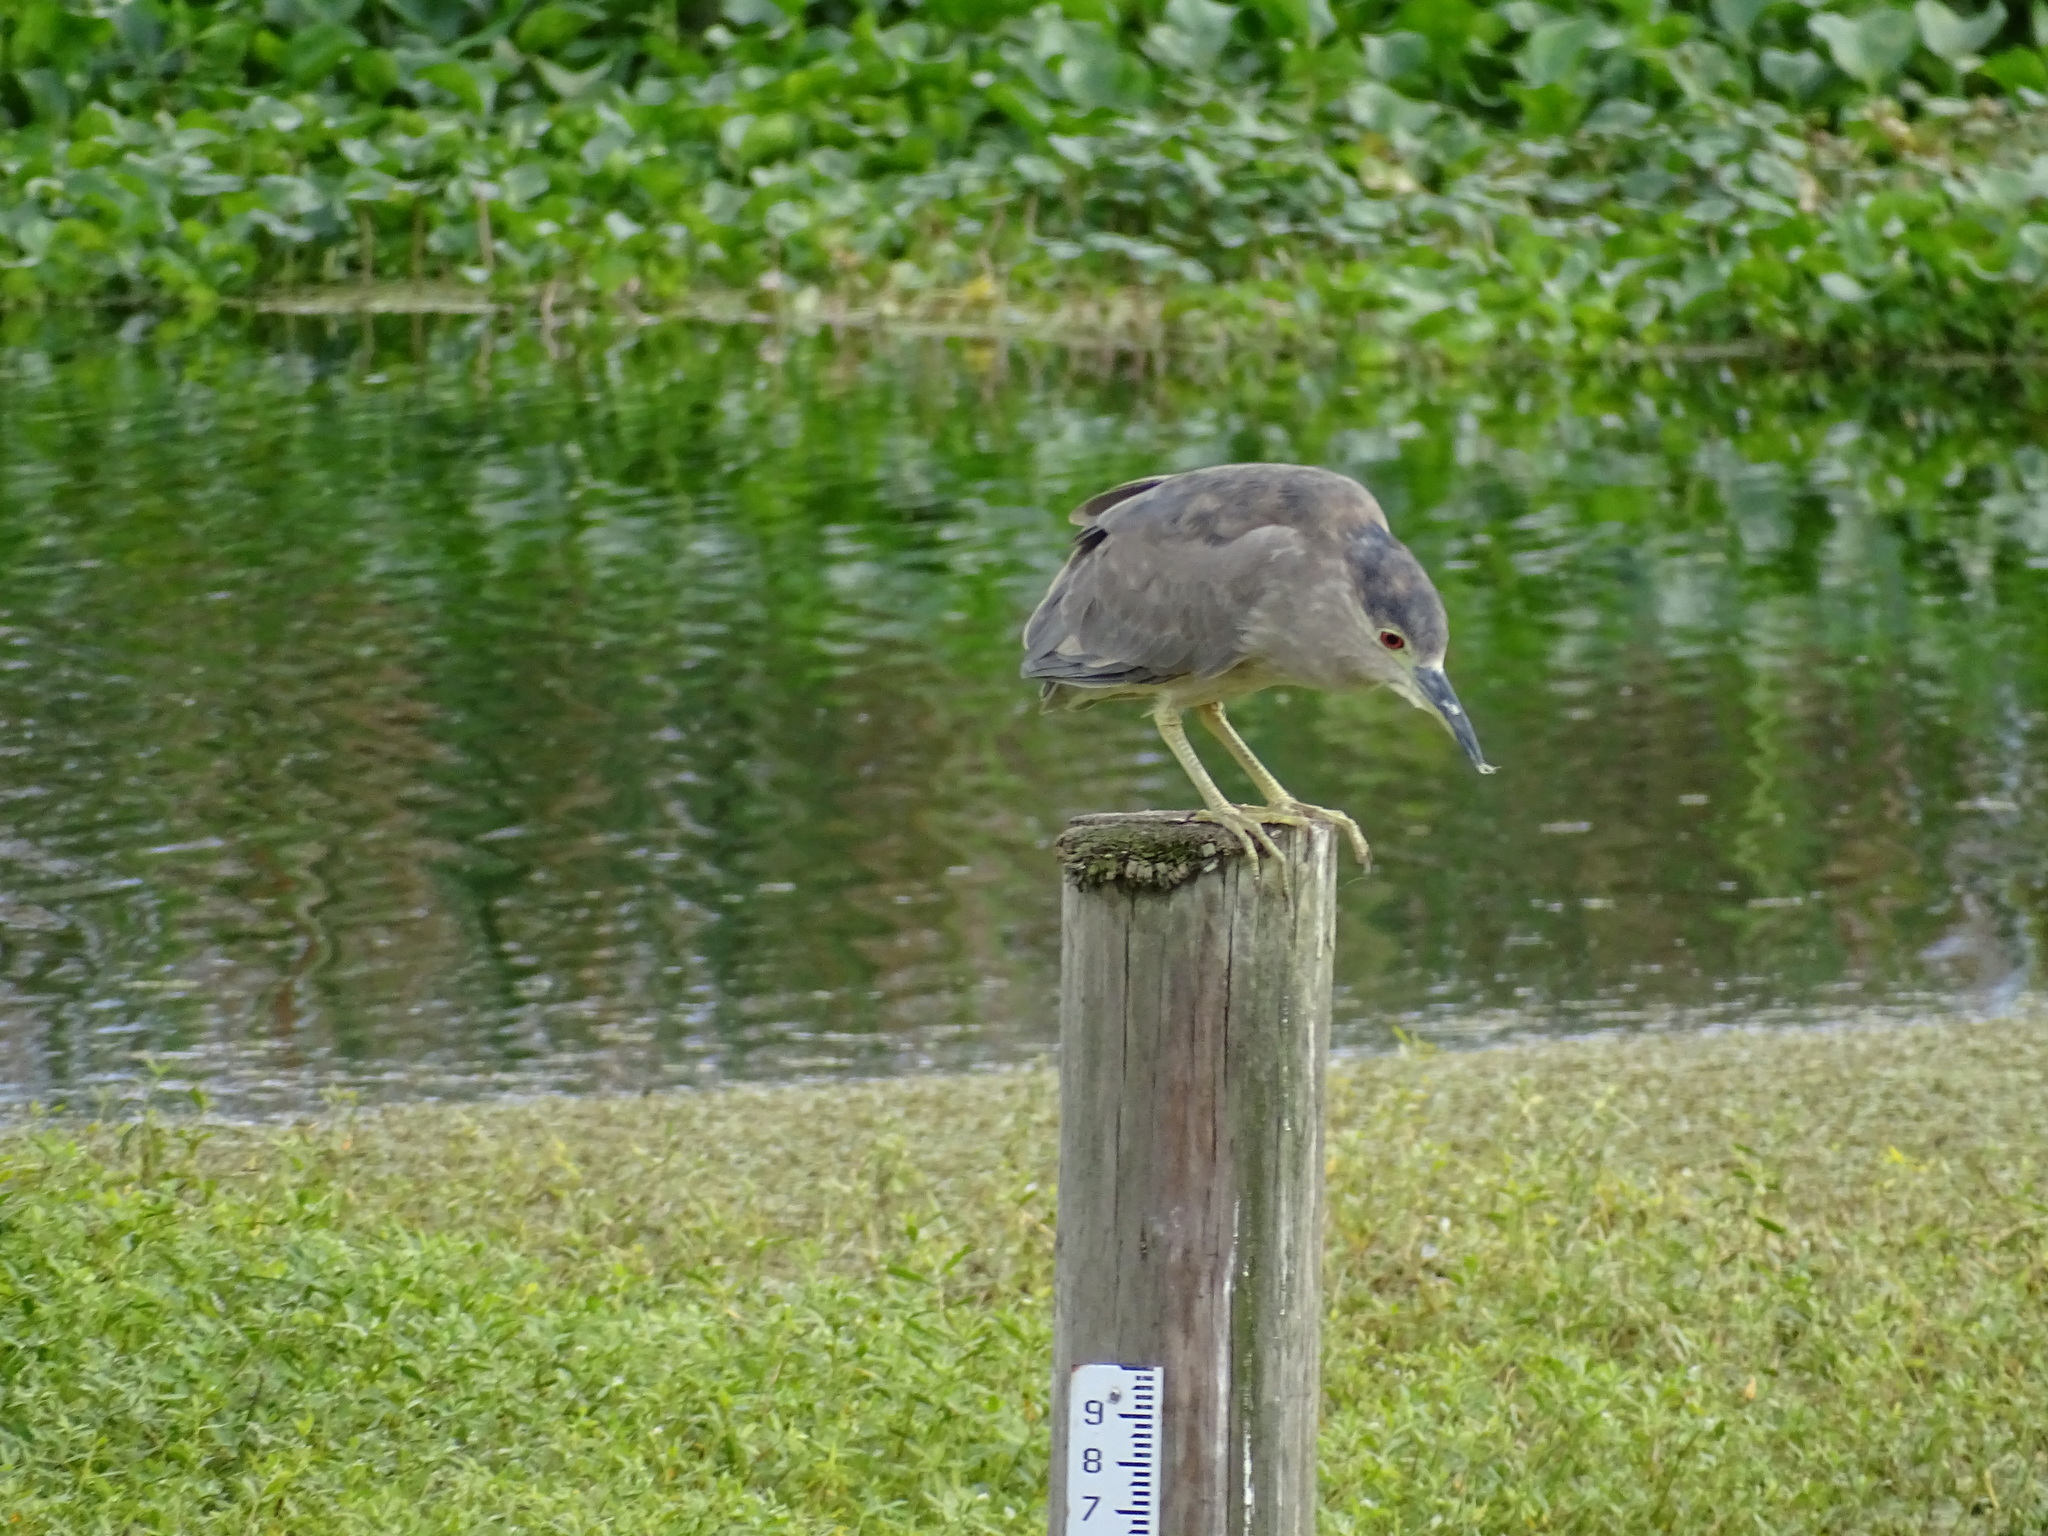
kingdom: Animalia
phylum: Chordata
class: Aves
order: Pelecaniformes
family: Ardeidae
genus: Nycticorax
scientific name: Nycticorax nycticorax
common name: Black-crowned night heron
